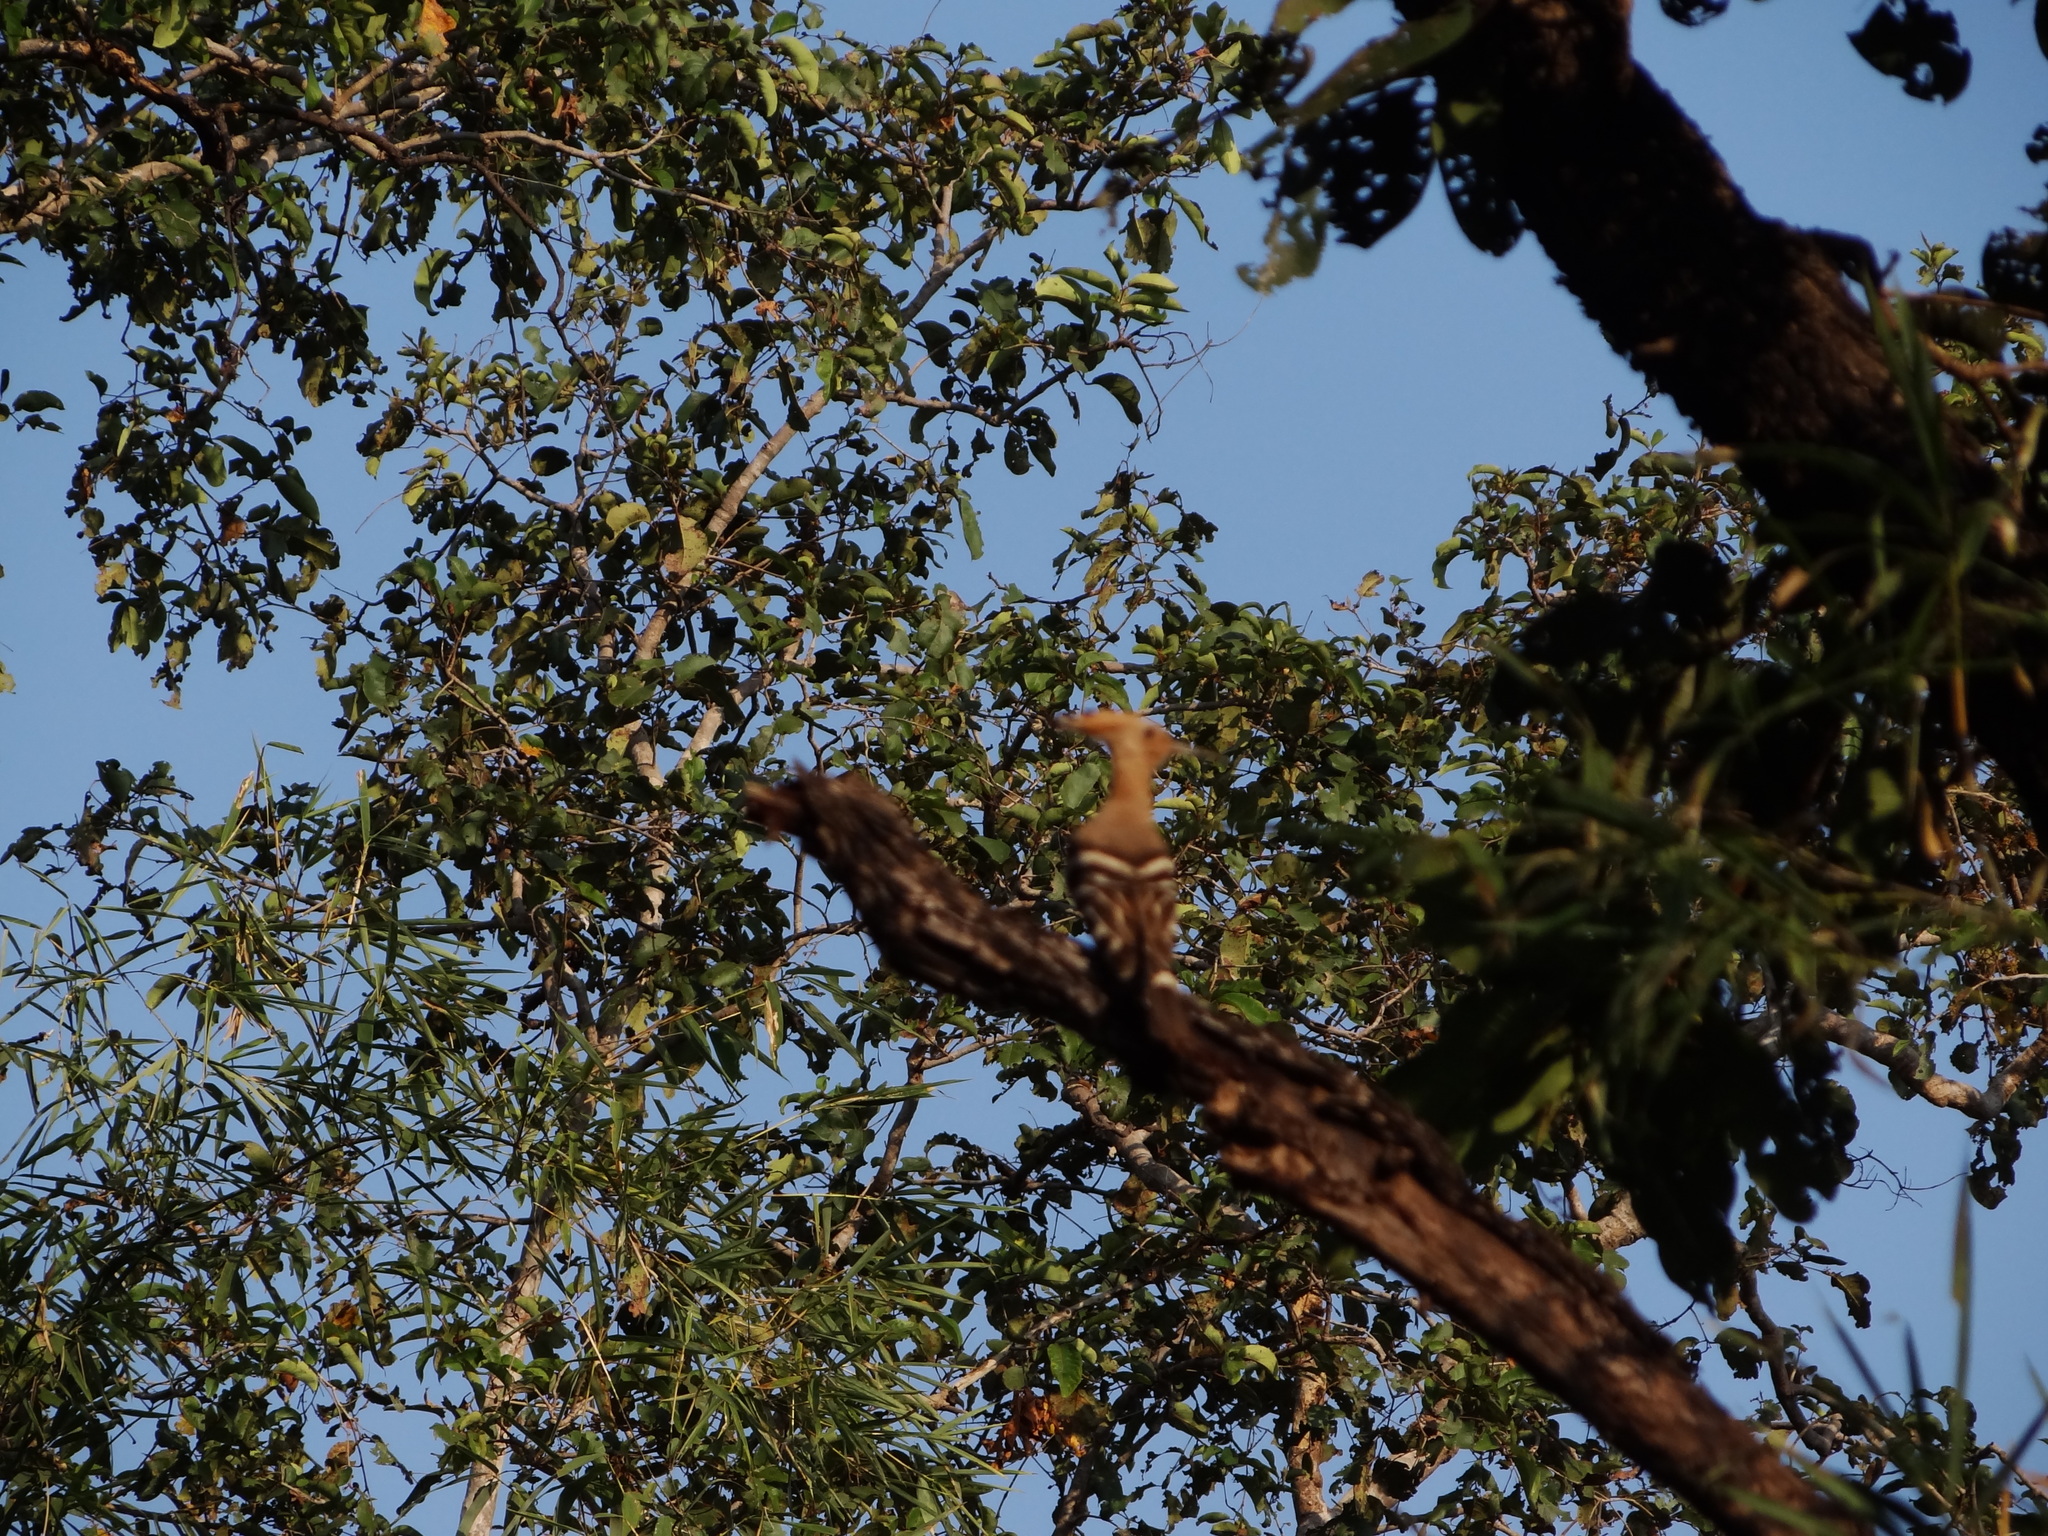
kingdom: Animalia
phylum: Chordata
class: Aves
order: Bucerotiformes
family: Upupidae
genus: Upupa
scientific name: Upupa epops
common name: Eurasian hoopoe
